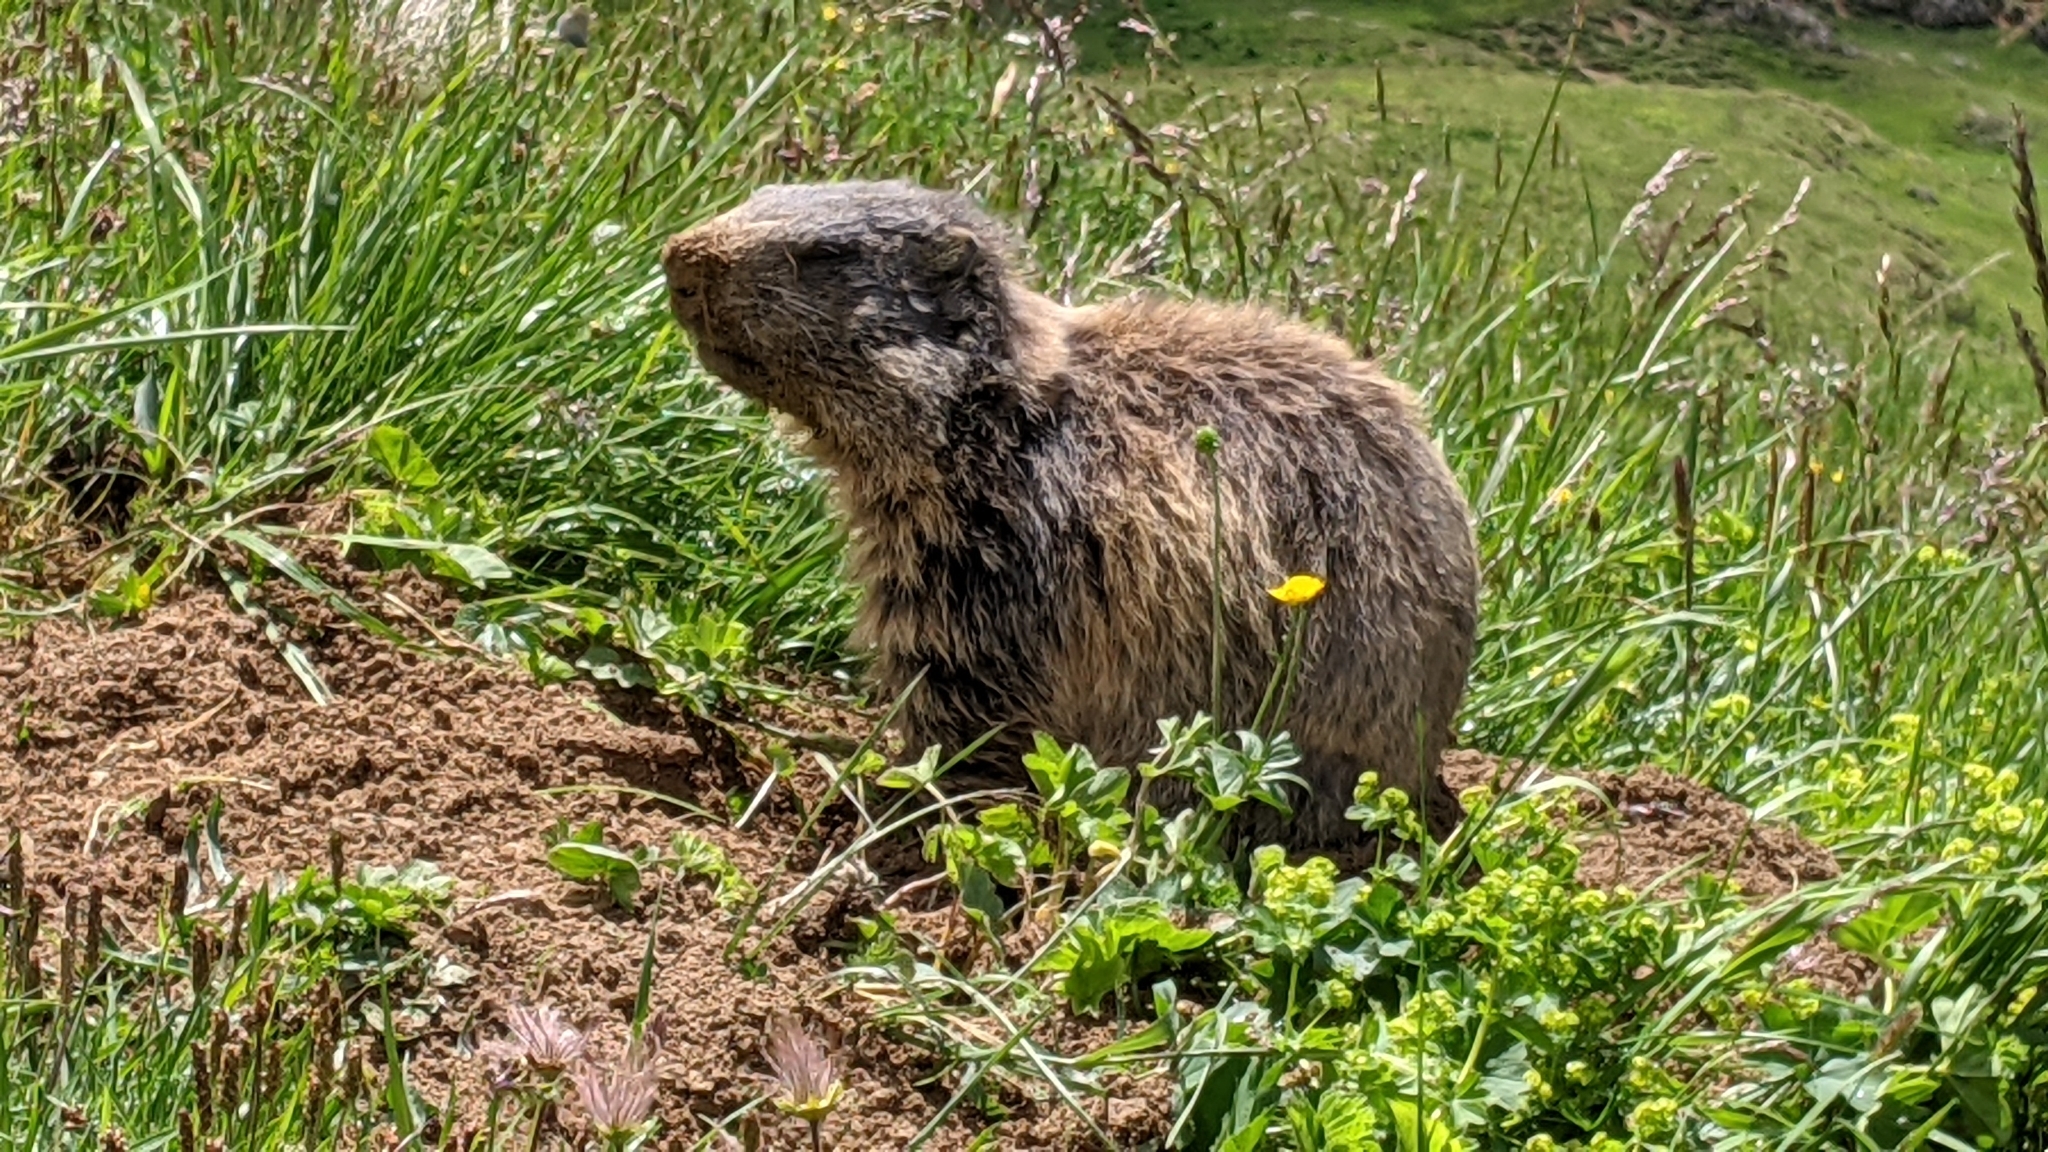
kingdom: Animalia
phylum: Chordata
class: Mammalia
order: Rodentia
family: Sciuridae
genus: Marmota
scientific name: Marmota marmota
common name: Alpine marmot
